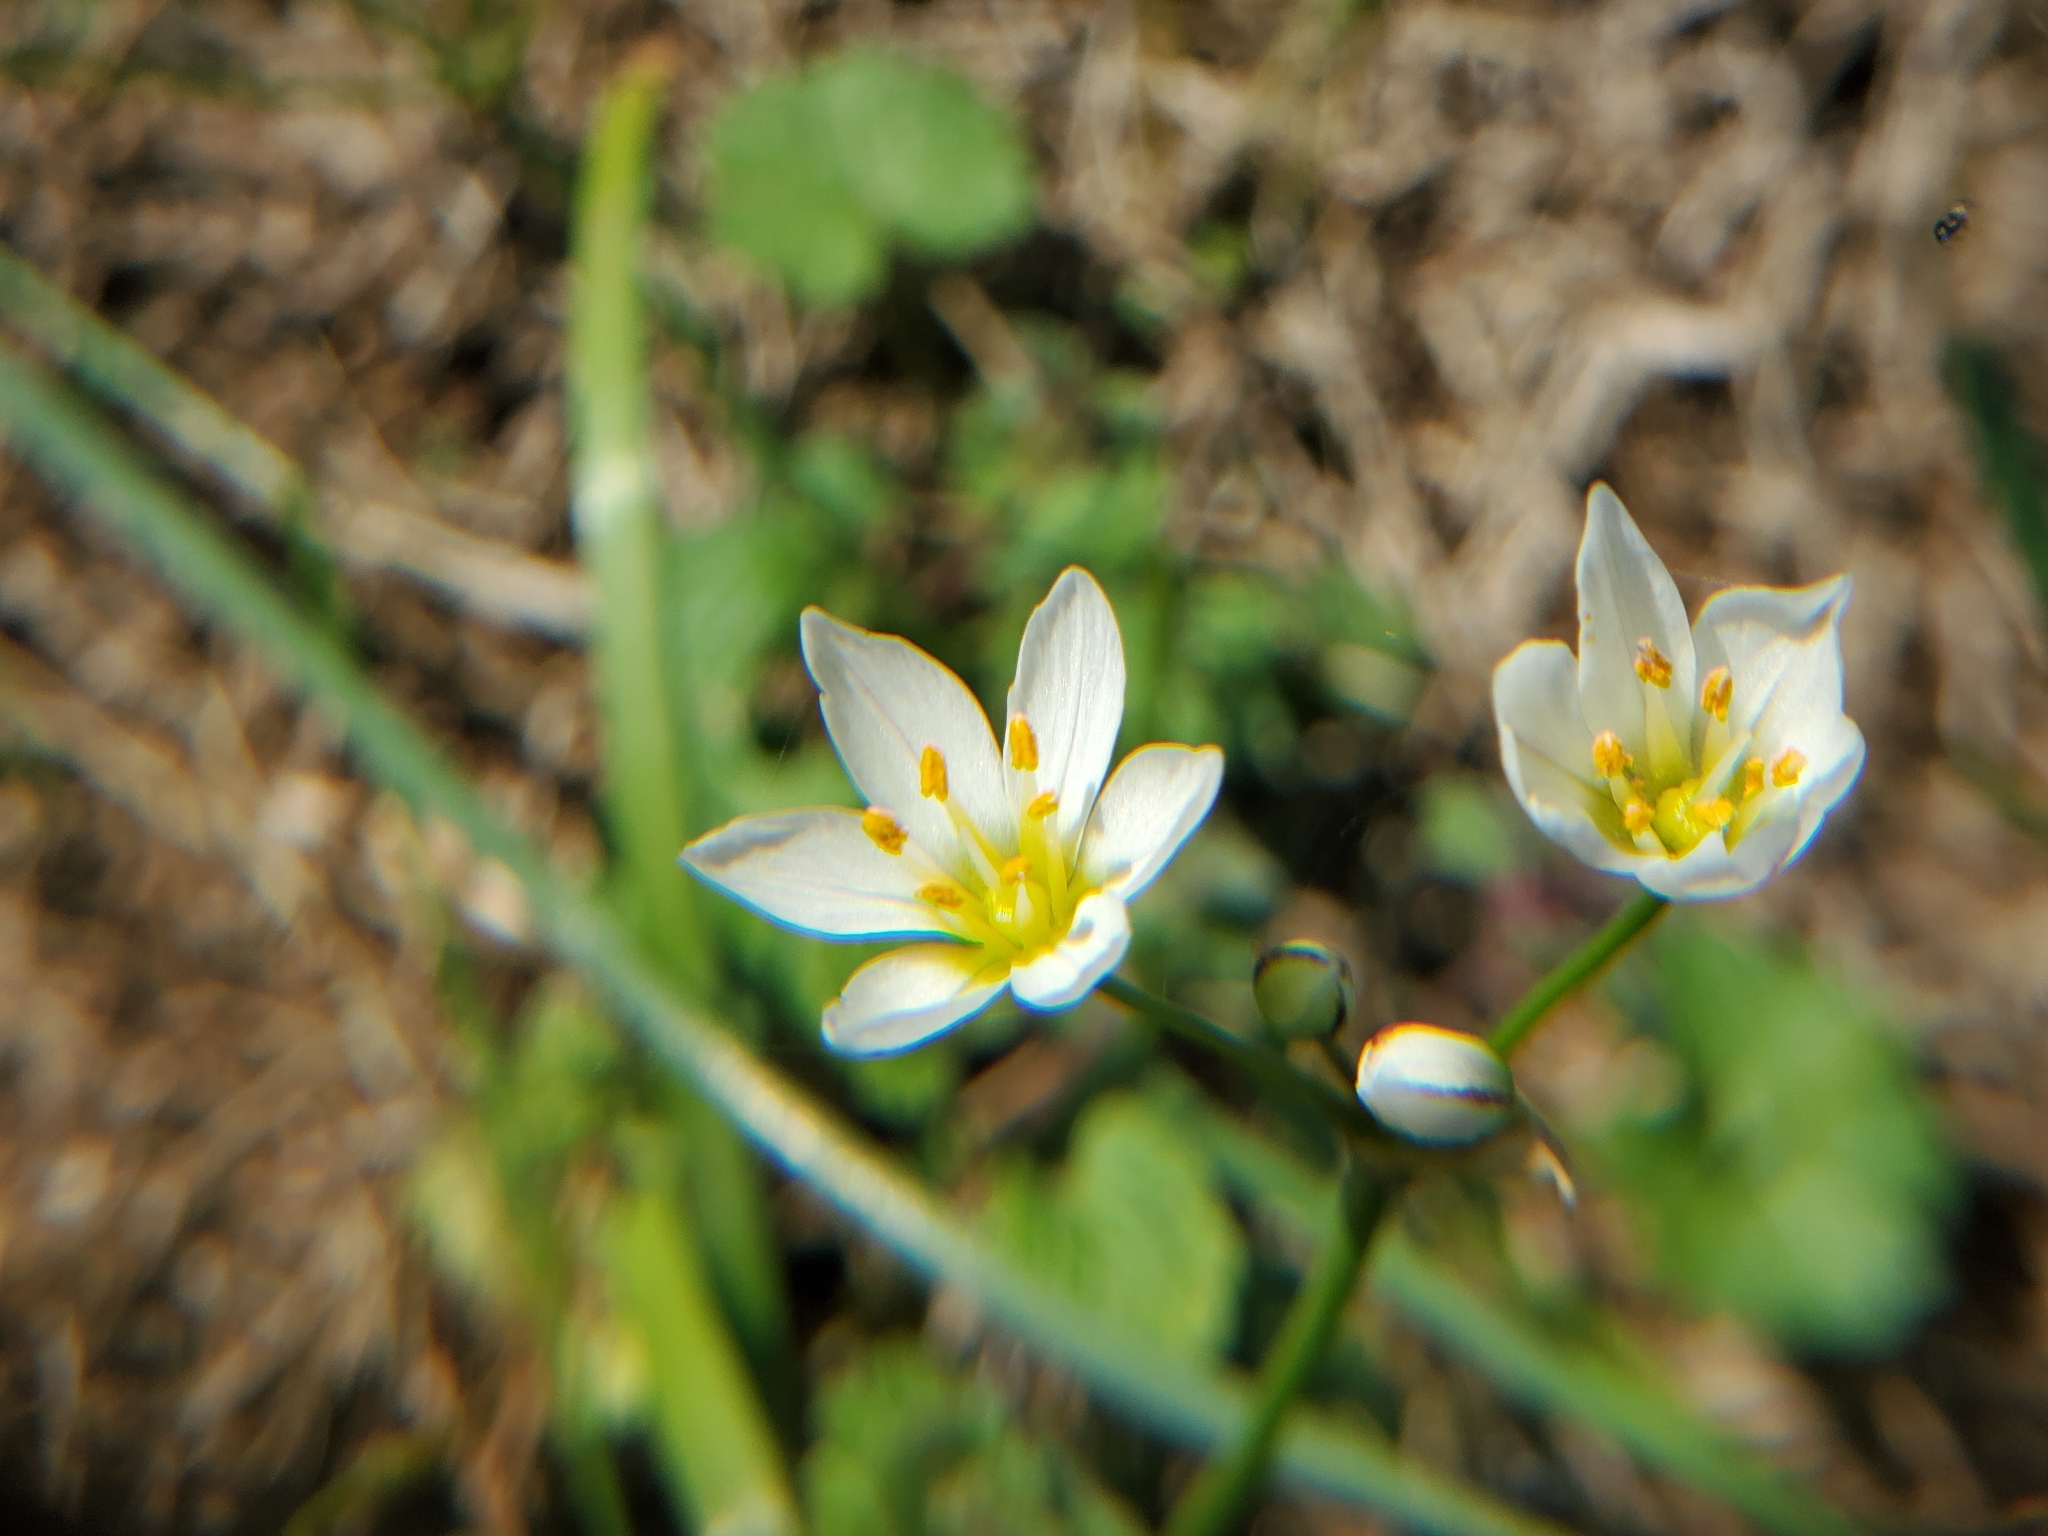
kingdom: Plantae
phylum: Tracheophyta
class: Liliopsida
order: Asparagales
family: Amaryllidaceae
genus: Nothoscordum
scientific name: Nothoscordum bivalve
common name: Crow-poison
